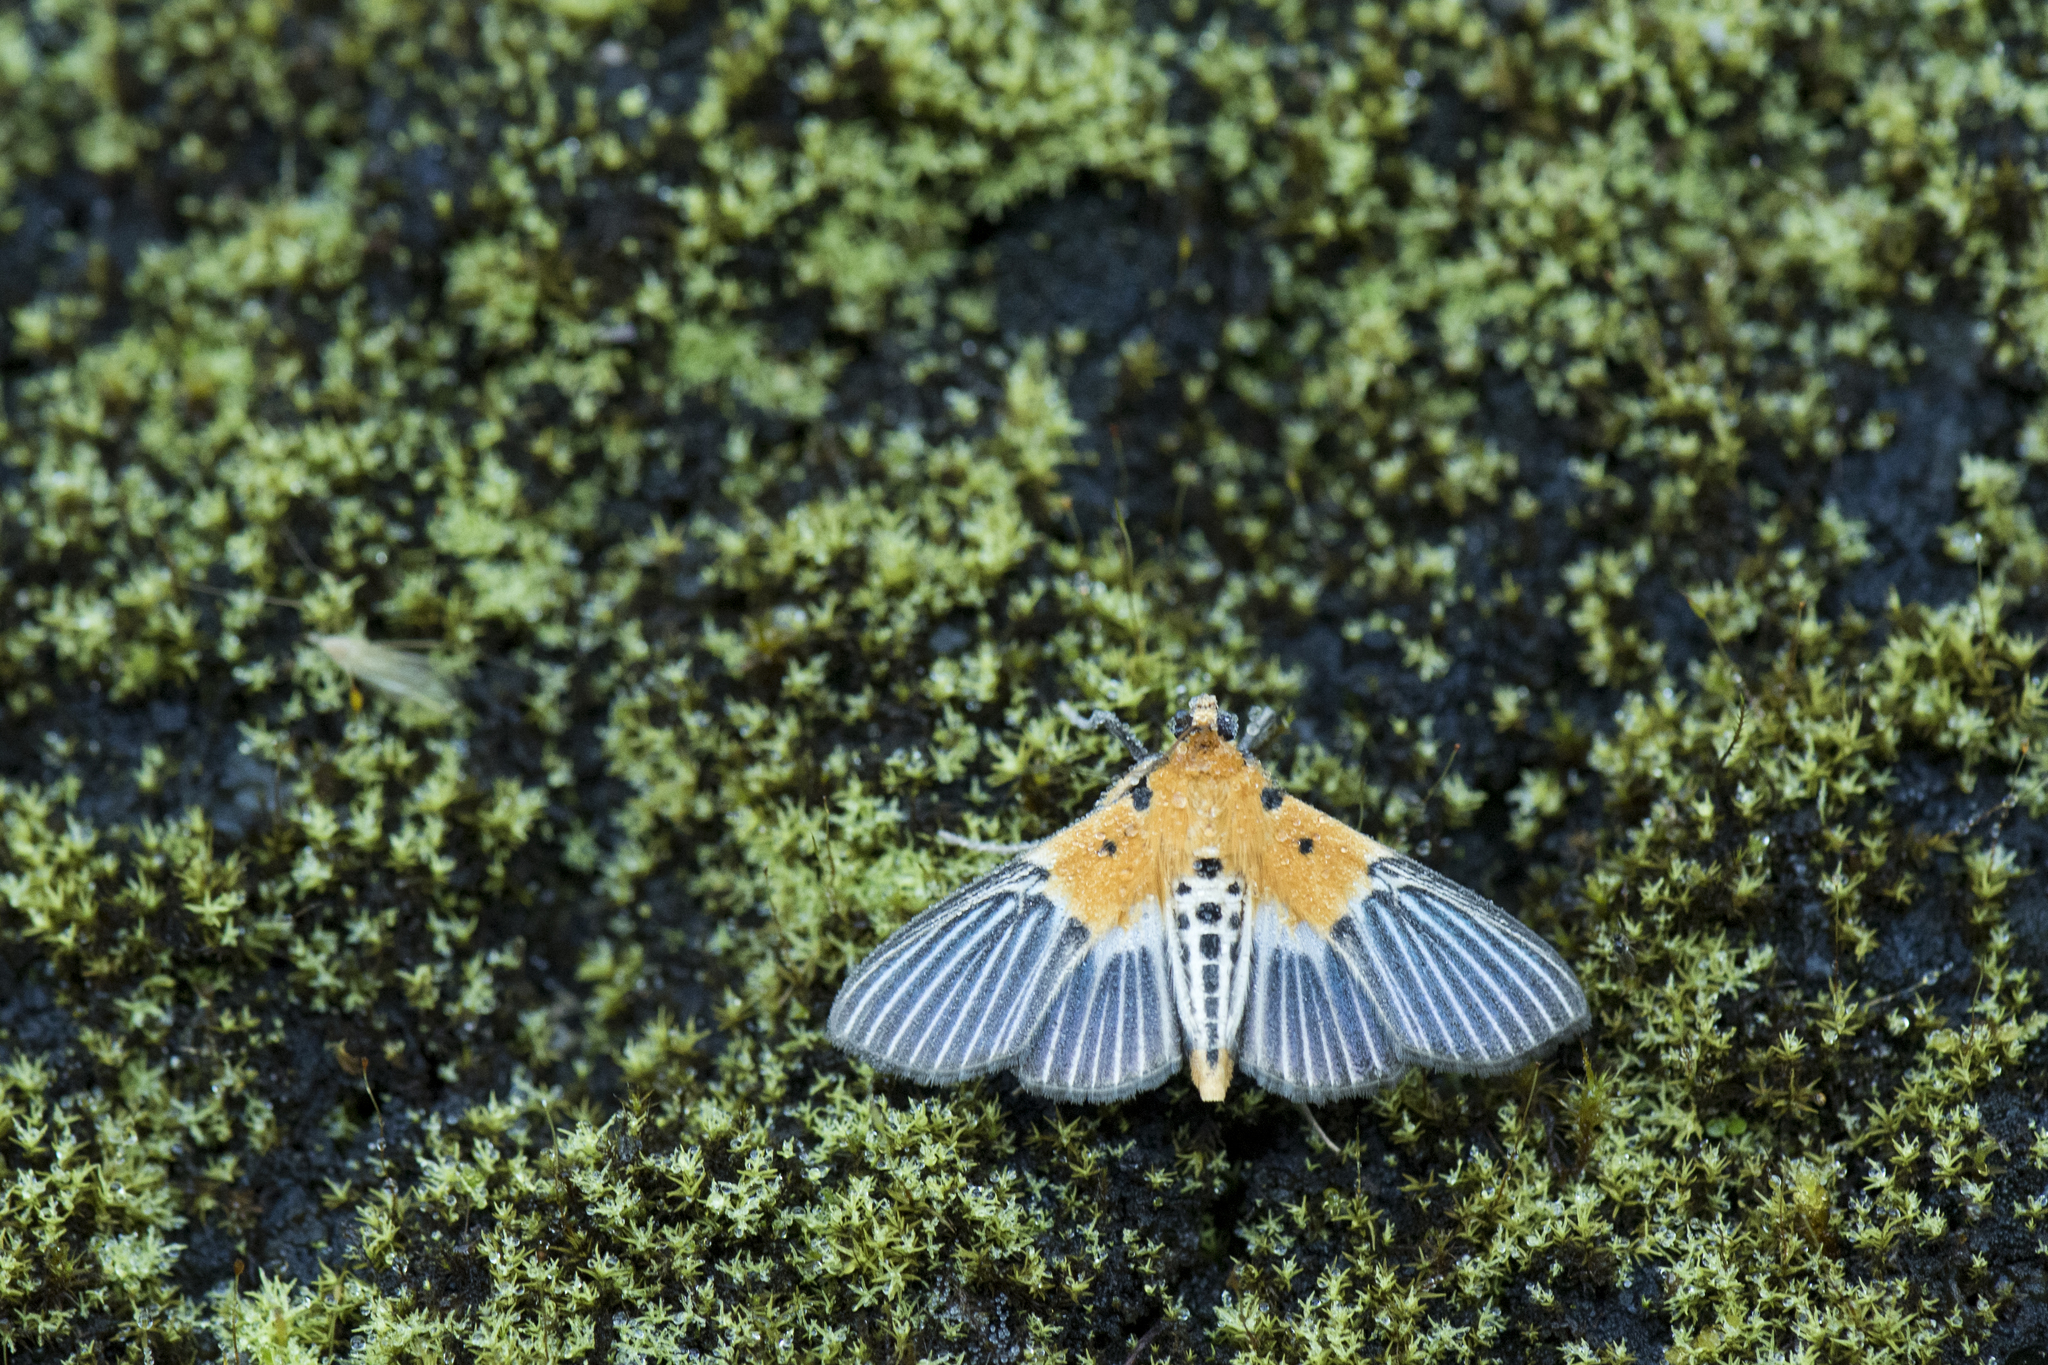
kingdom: Animalia
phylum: Arthropoda
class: Insecta
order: Lepidoptera
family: Crambidae
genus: Nevrina
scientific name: Nevrina procopia
